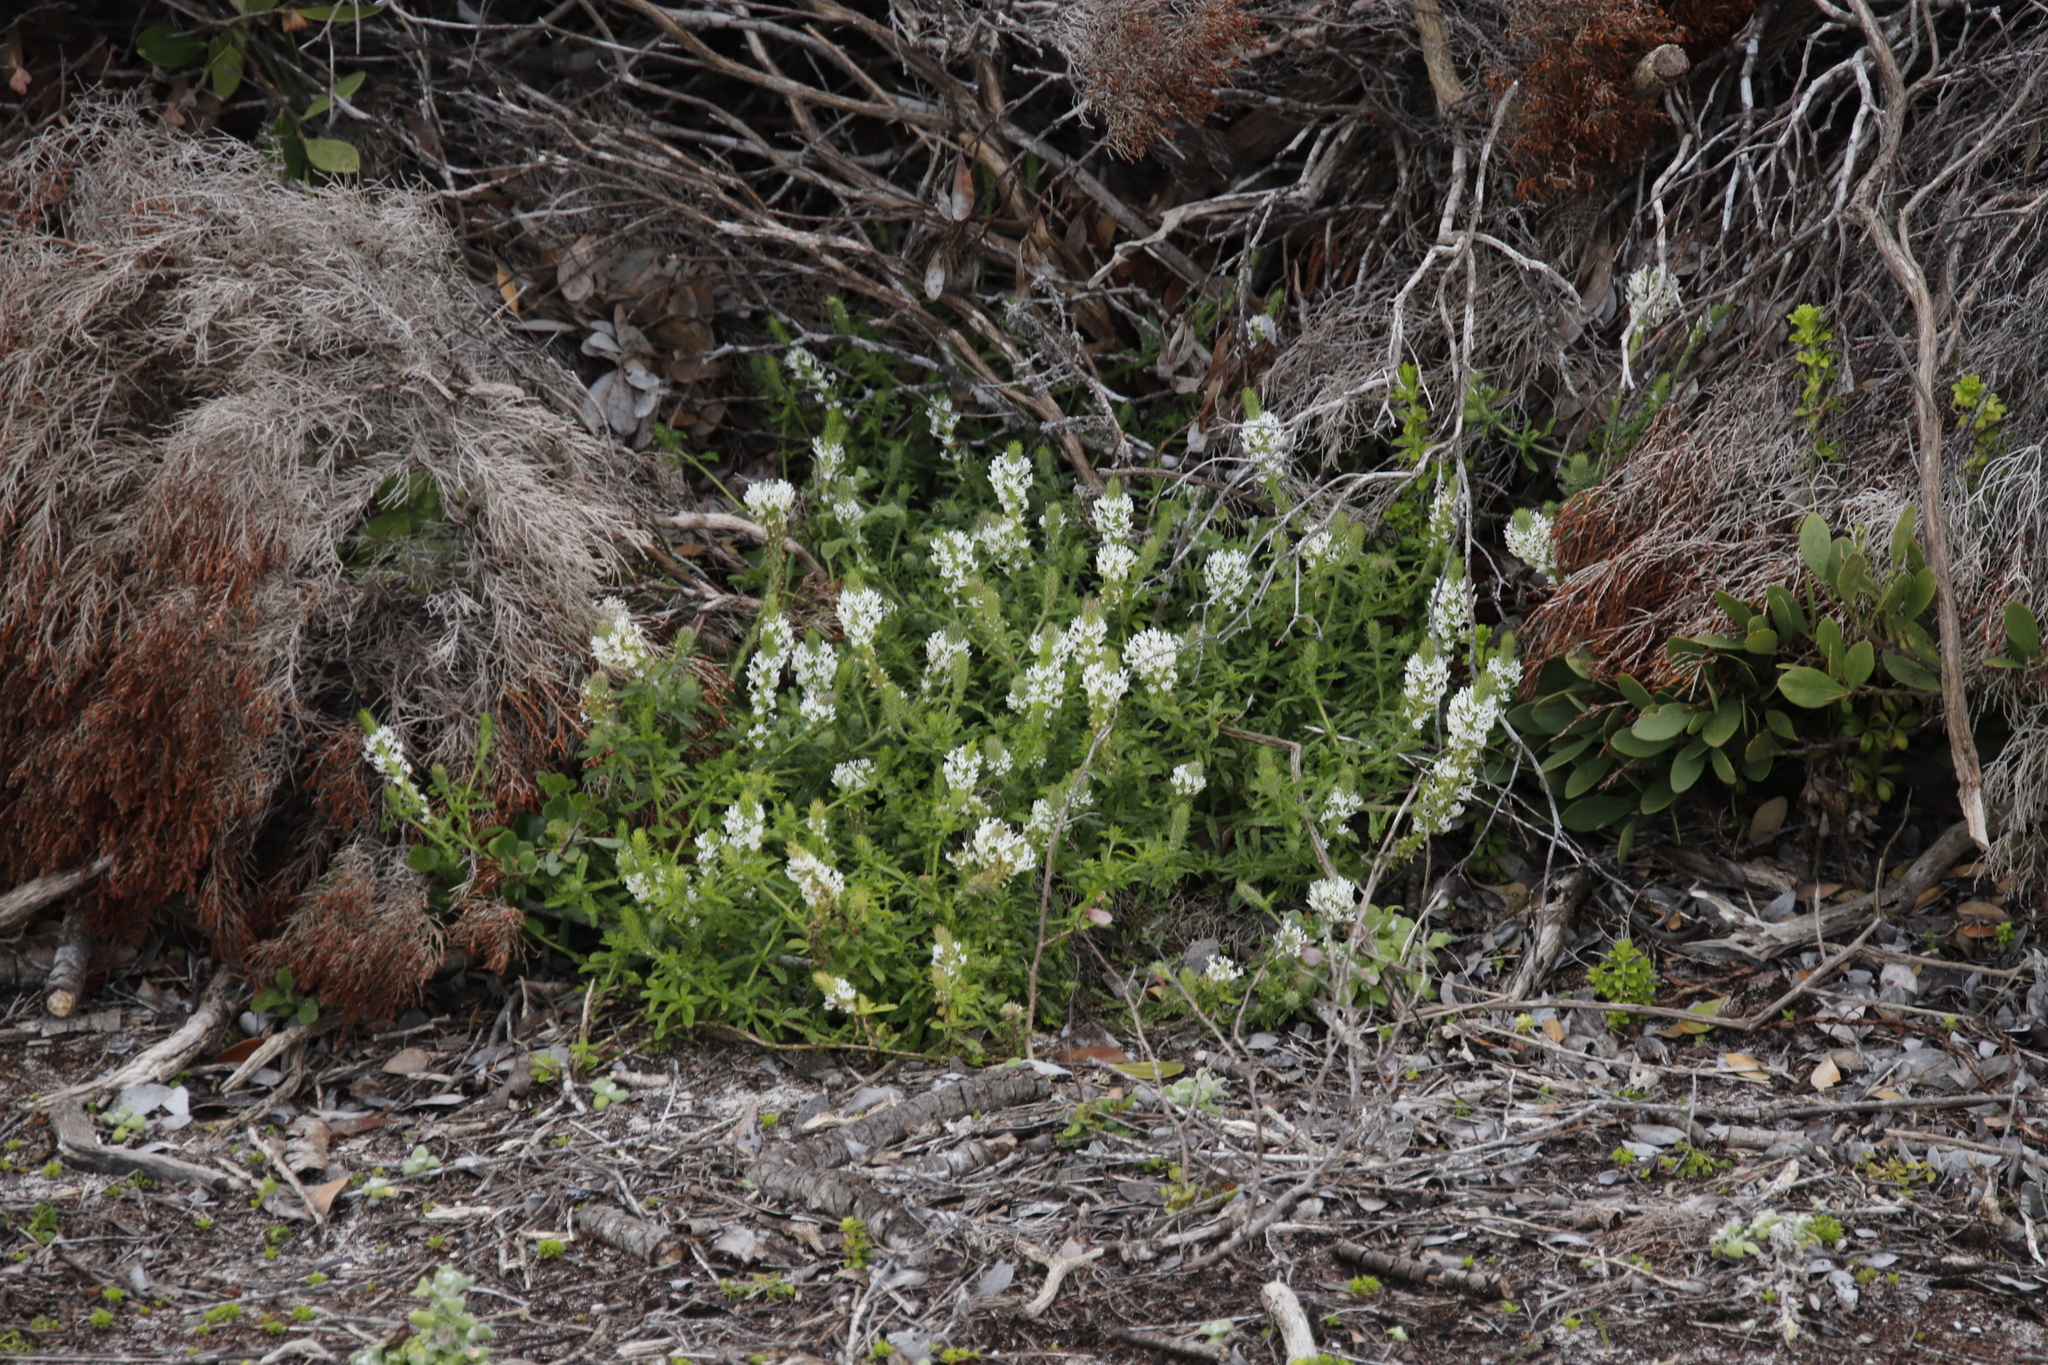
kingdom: Plantae
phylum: Tracheophyta
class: Magnoliopsida
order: Lamiales
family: Scrophulariaceae
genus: Dischisma
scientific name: Dischisma ciliatum
